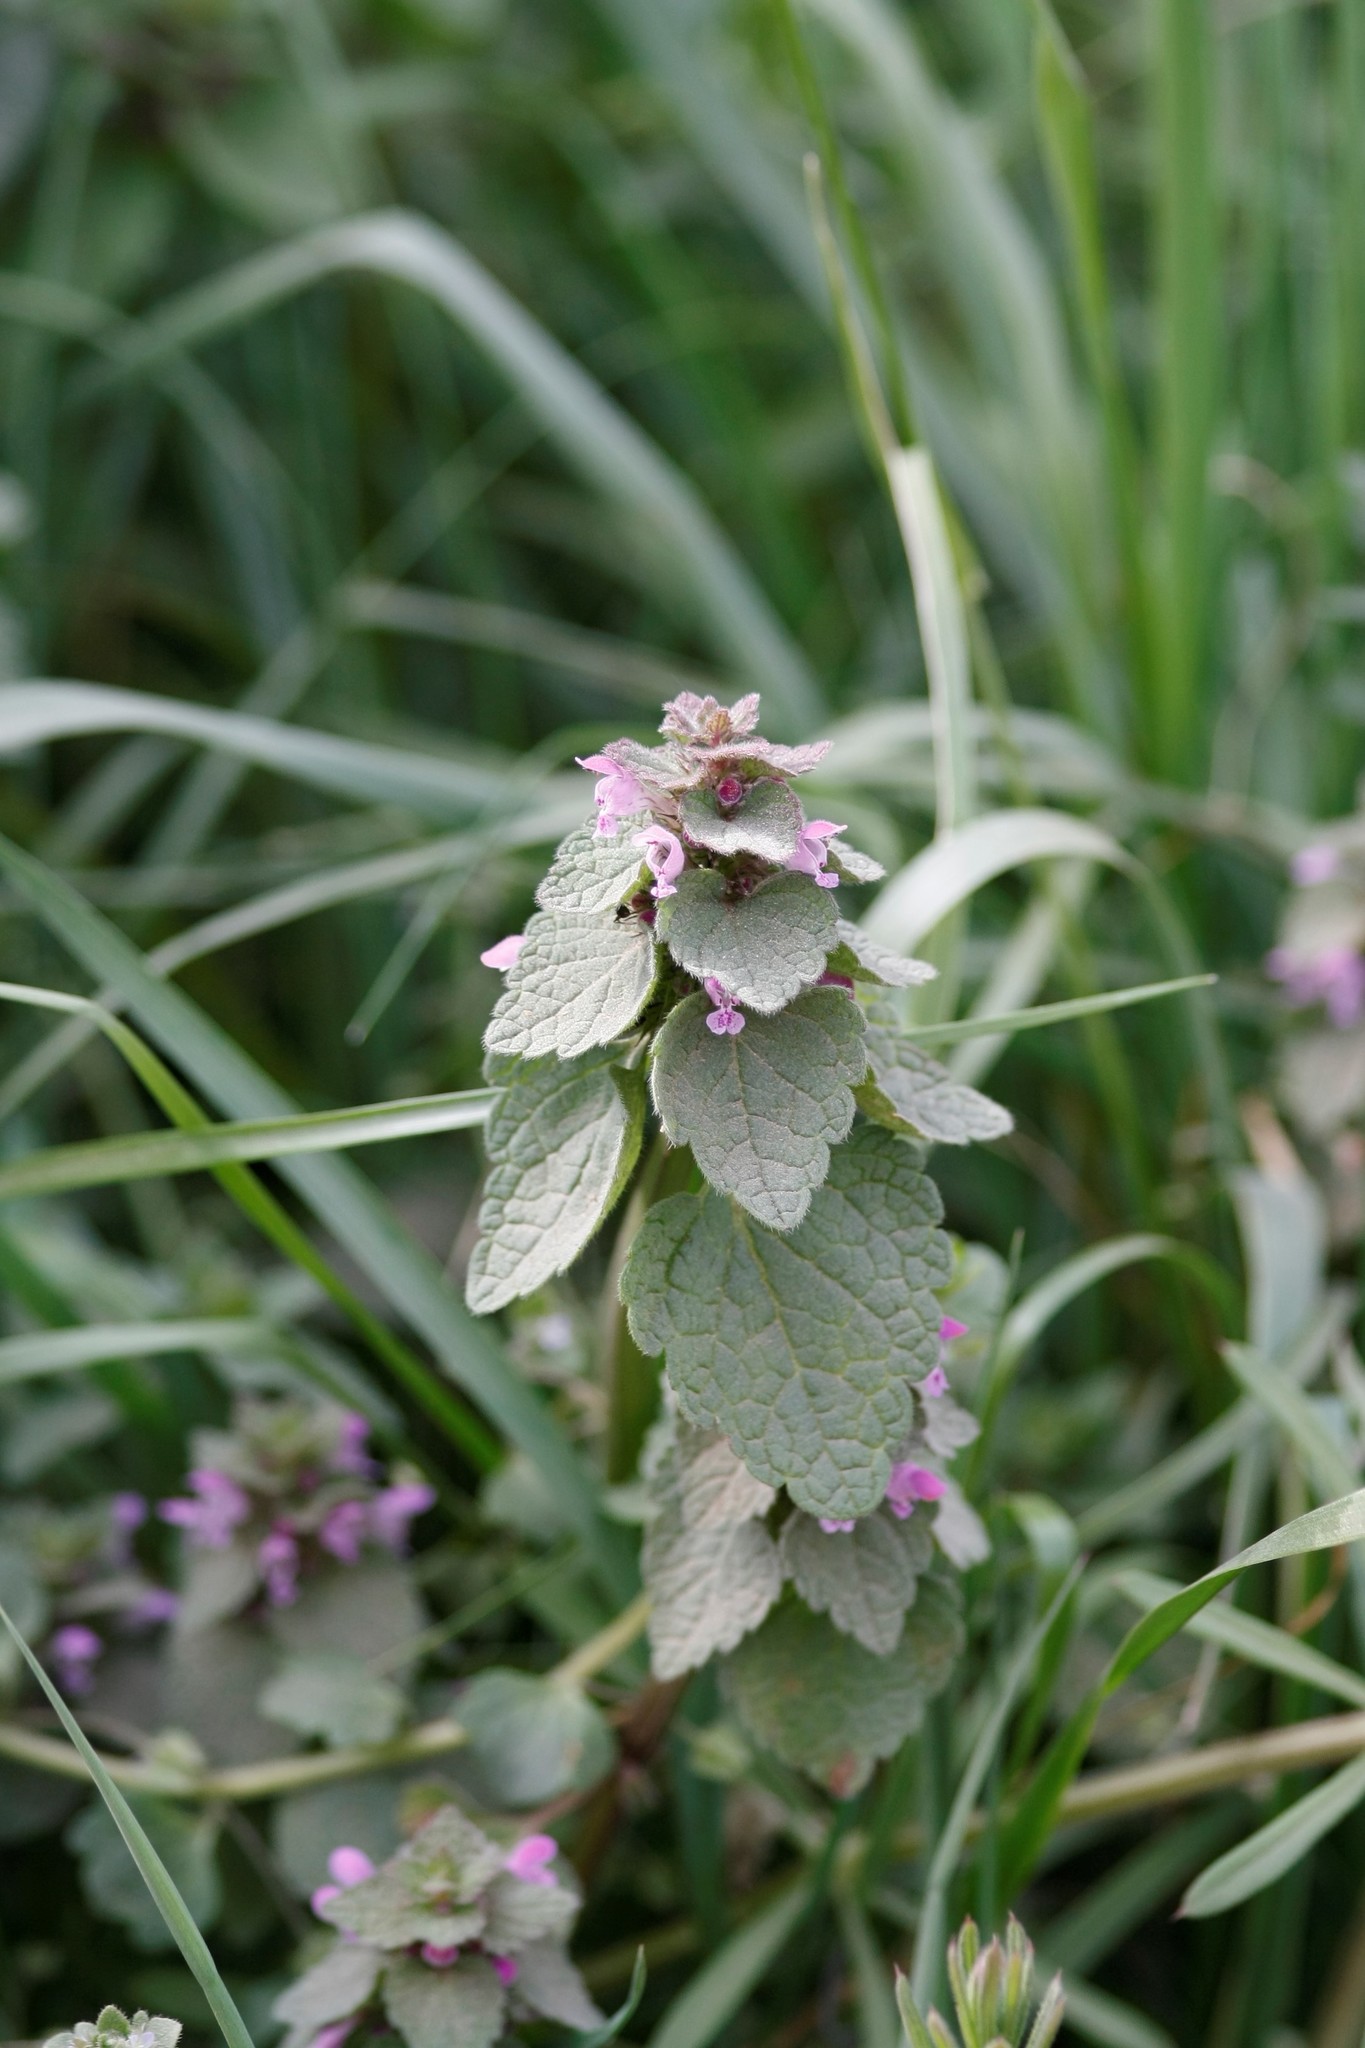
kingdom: Plantae
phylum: Tracheophyta
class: Magnoliopsida
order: Lamiales
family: Lamiaceae
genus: Lamium
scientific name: Lamium purpureum
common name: Red dead-nettle
